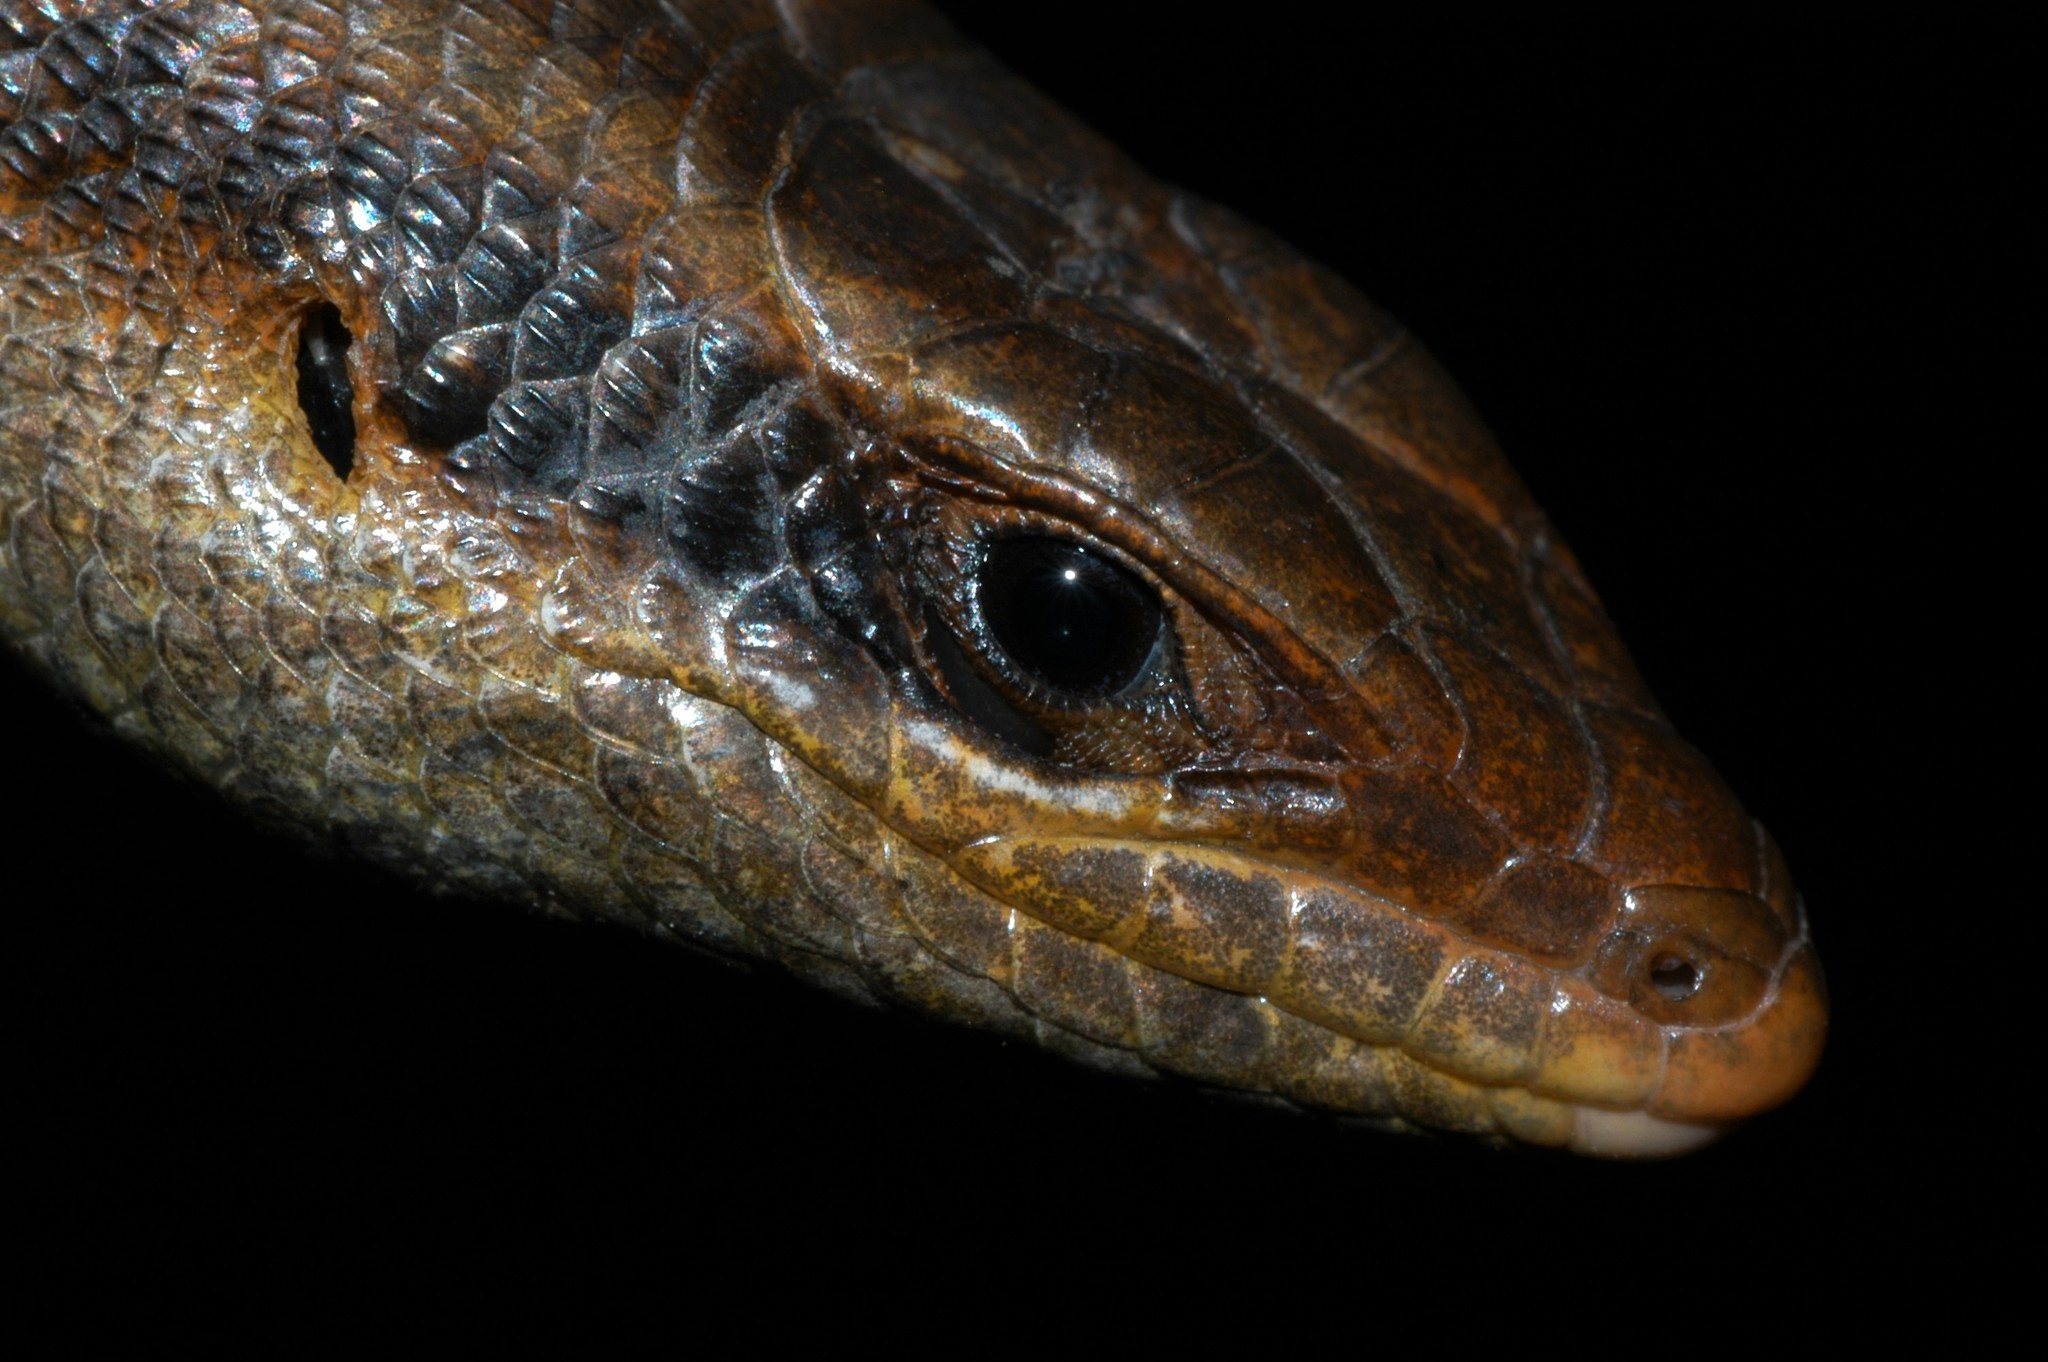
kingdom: Animalia
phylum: Chordata
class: Squamata
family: Scincidae
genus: Trachylepis
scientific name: Trachylepis wahlbergii
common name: Wahlberg’s striped skink
